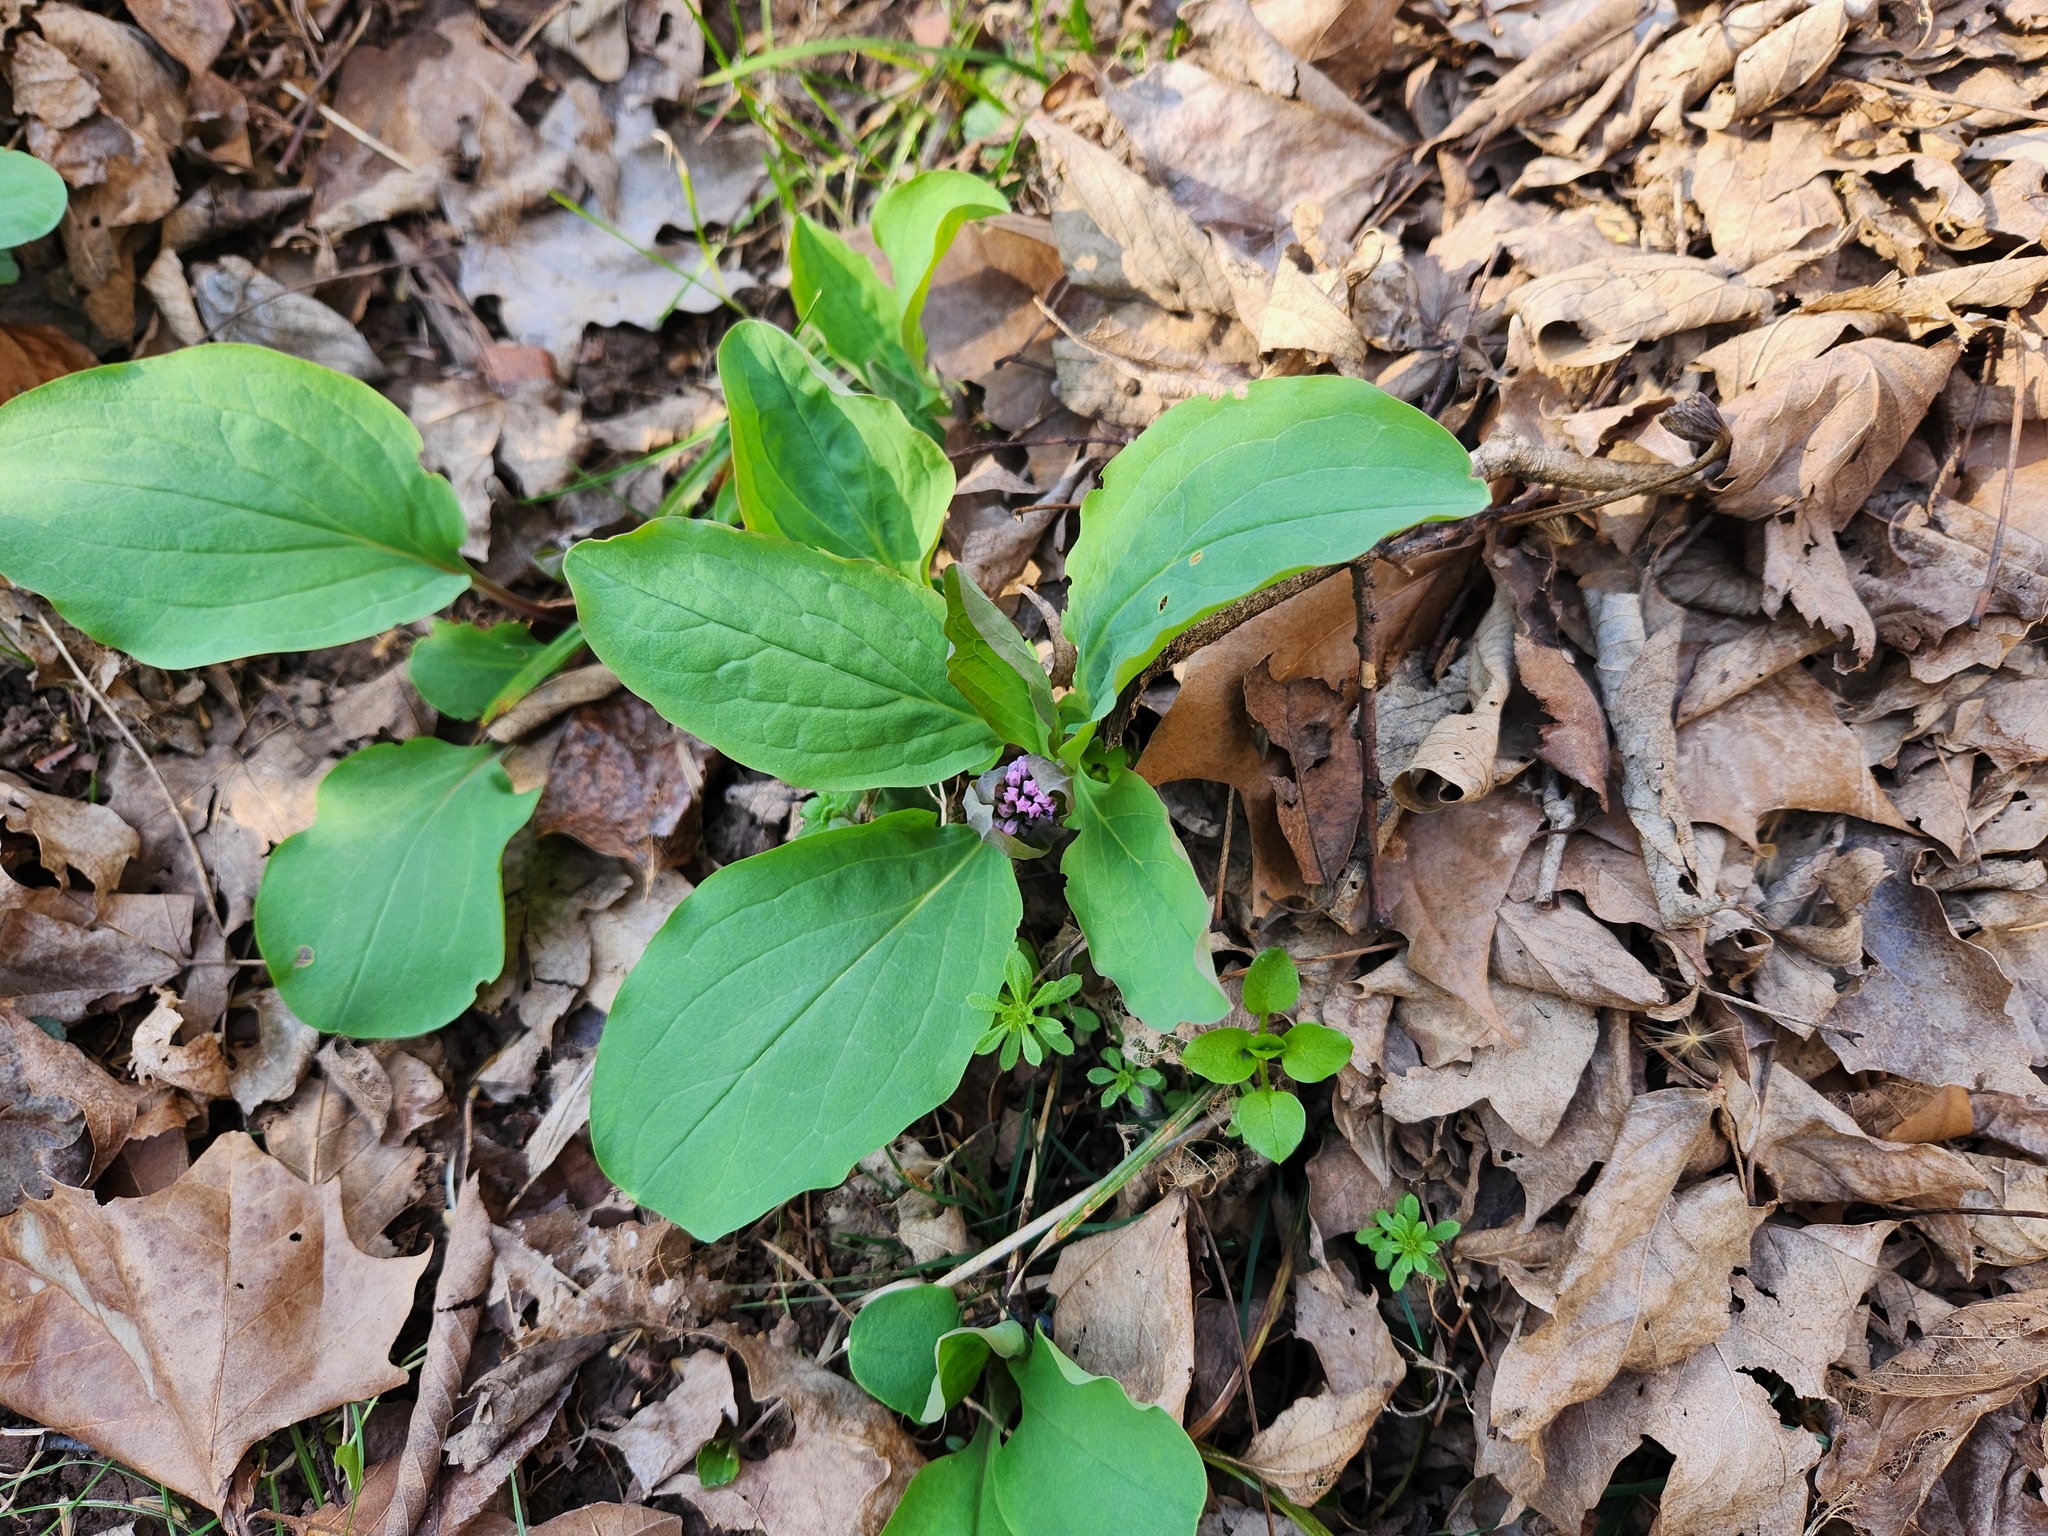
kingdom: Plantae
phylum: Tracheophyta
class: Magnoliopsida
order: Boraginales
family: Boraginaceae
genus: Mertensia
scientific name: Mertensia virginica
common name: Virginia bluebells
